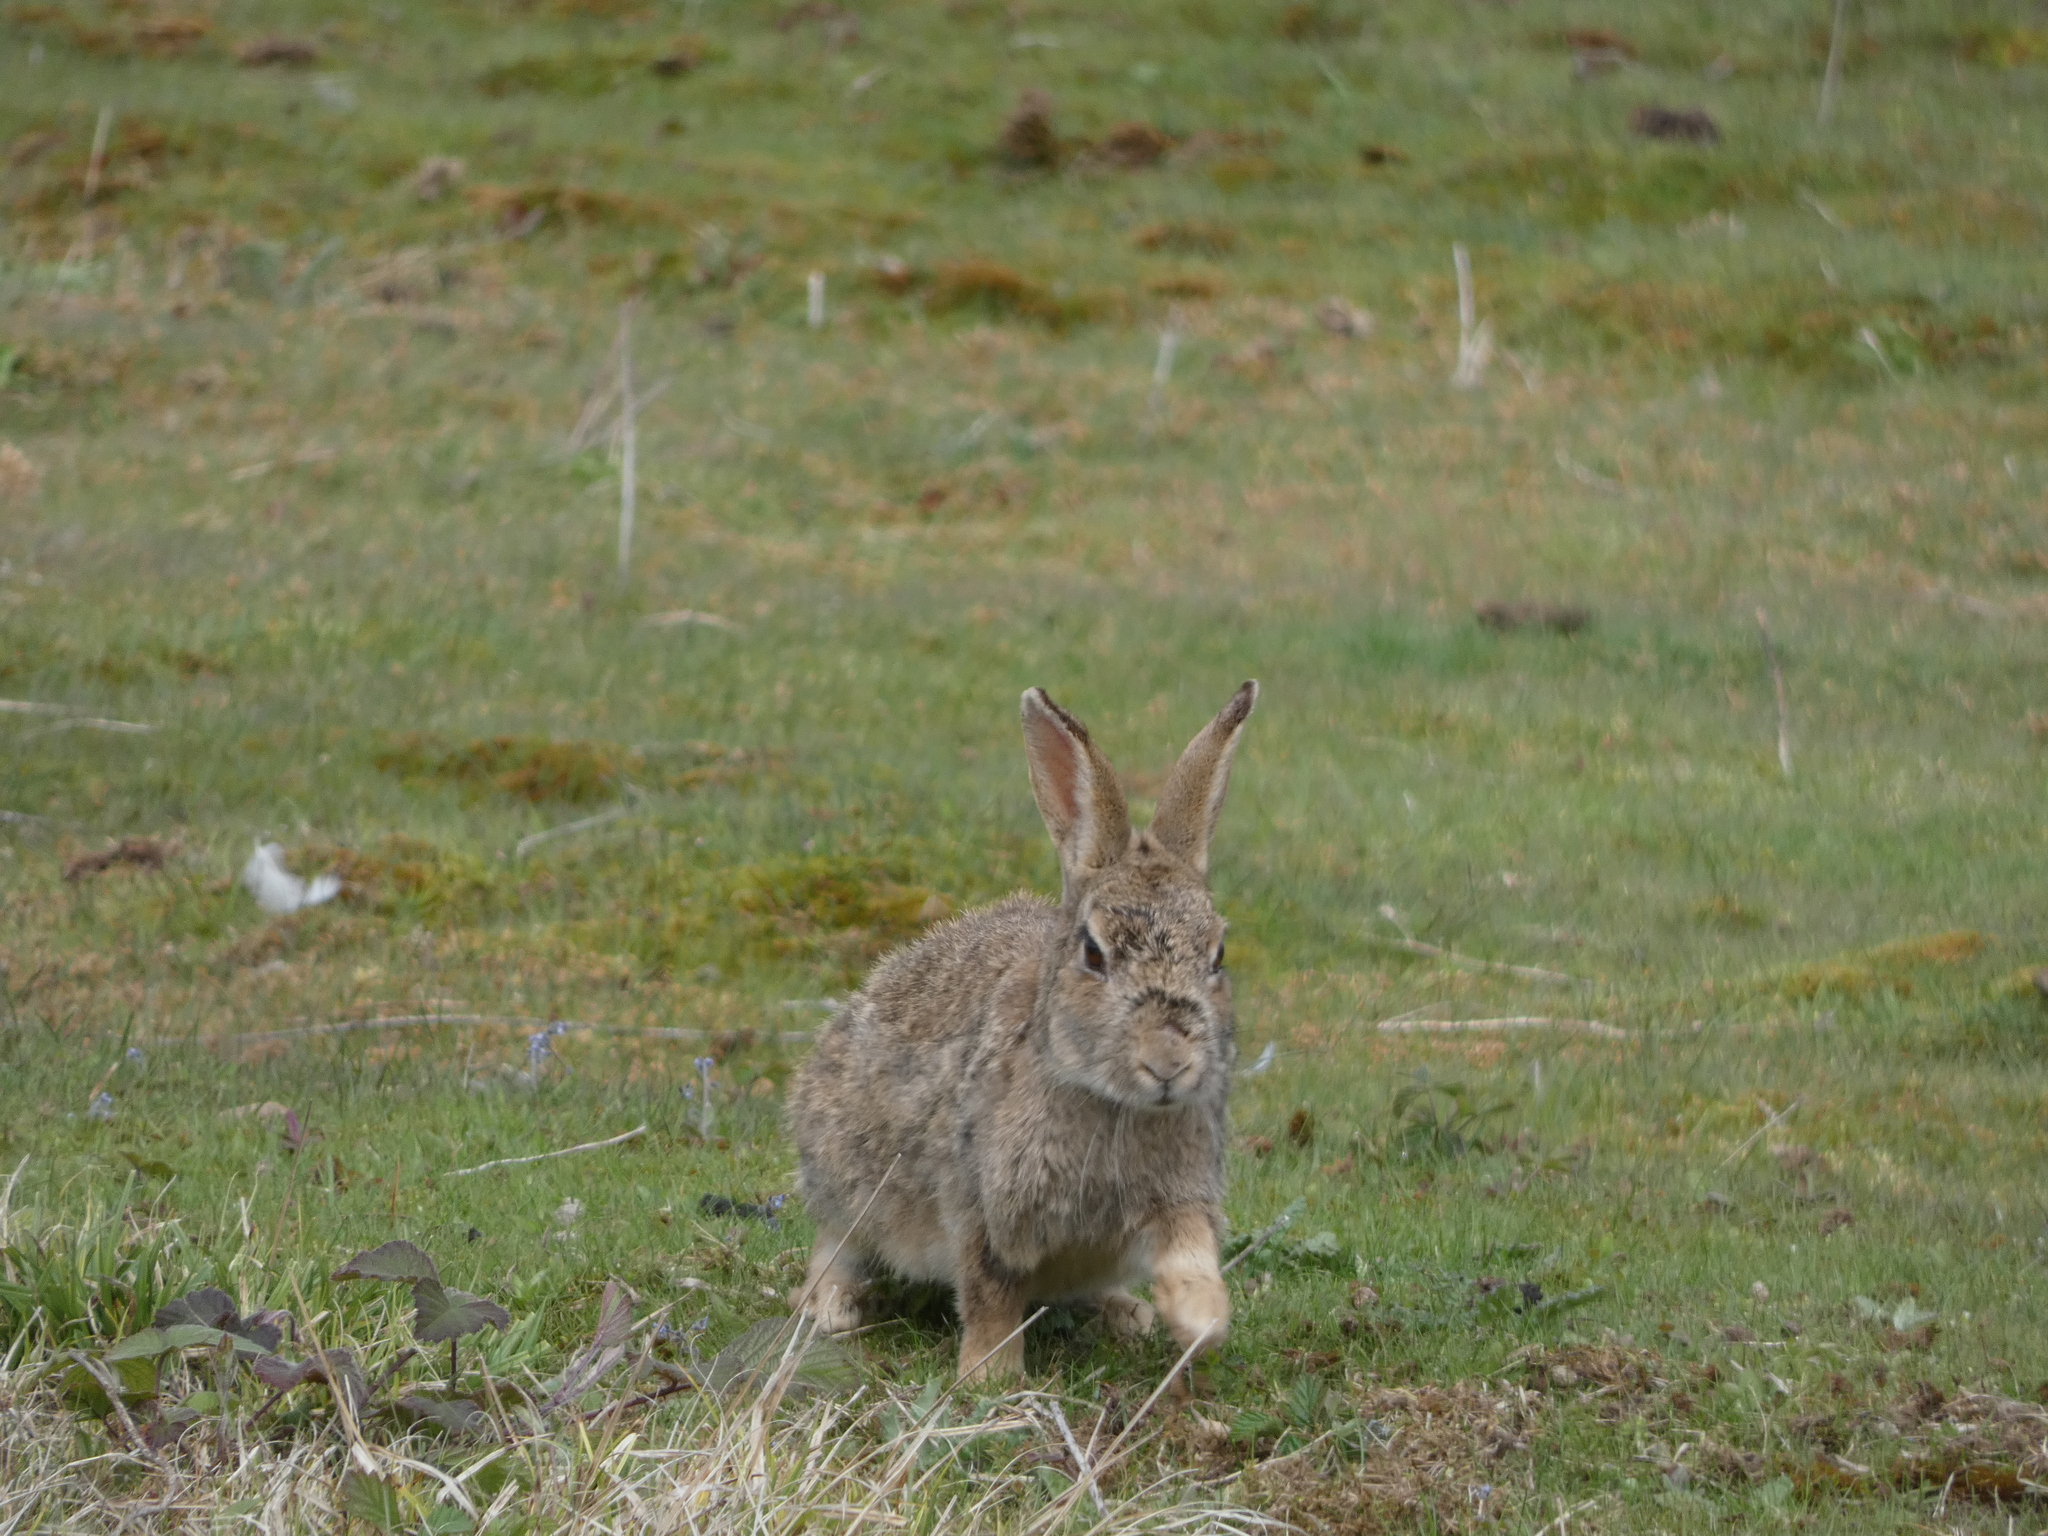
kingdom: Animalia
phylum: Chordata
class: Mammalia
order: Lagomorpha
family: Leporidae
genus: Oryctolagus
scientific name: Oryctolagus cuniculus
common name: European rabbit
